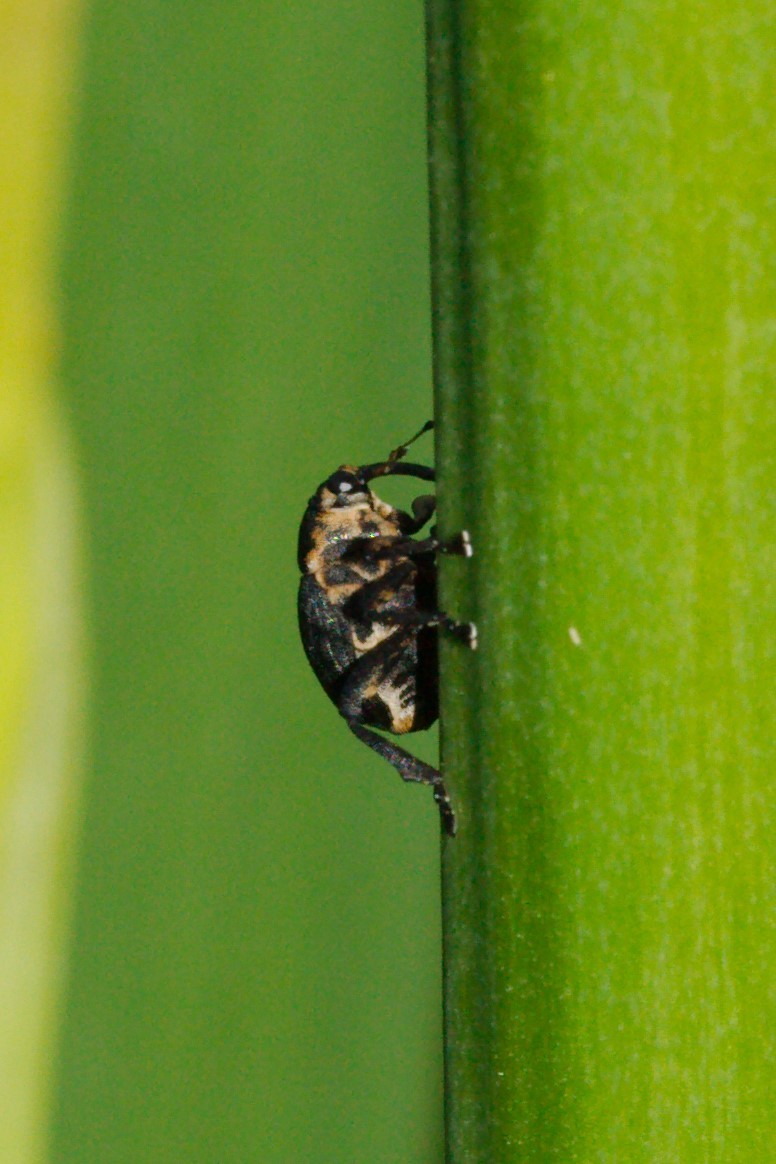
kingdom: Animalia
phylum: Arthropoda
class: Insecta
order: Coleoptera
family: Curculionidae
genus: Mononychus
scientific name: Mononychus punctumalbum
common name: Iris weevil
